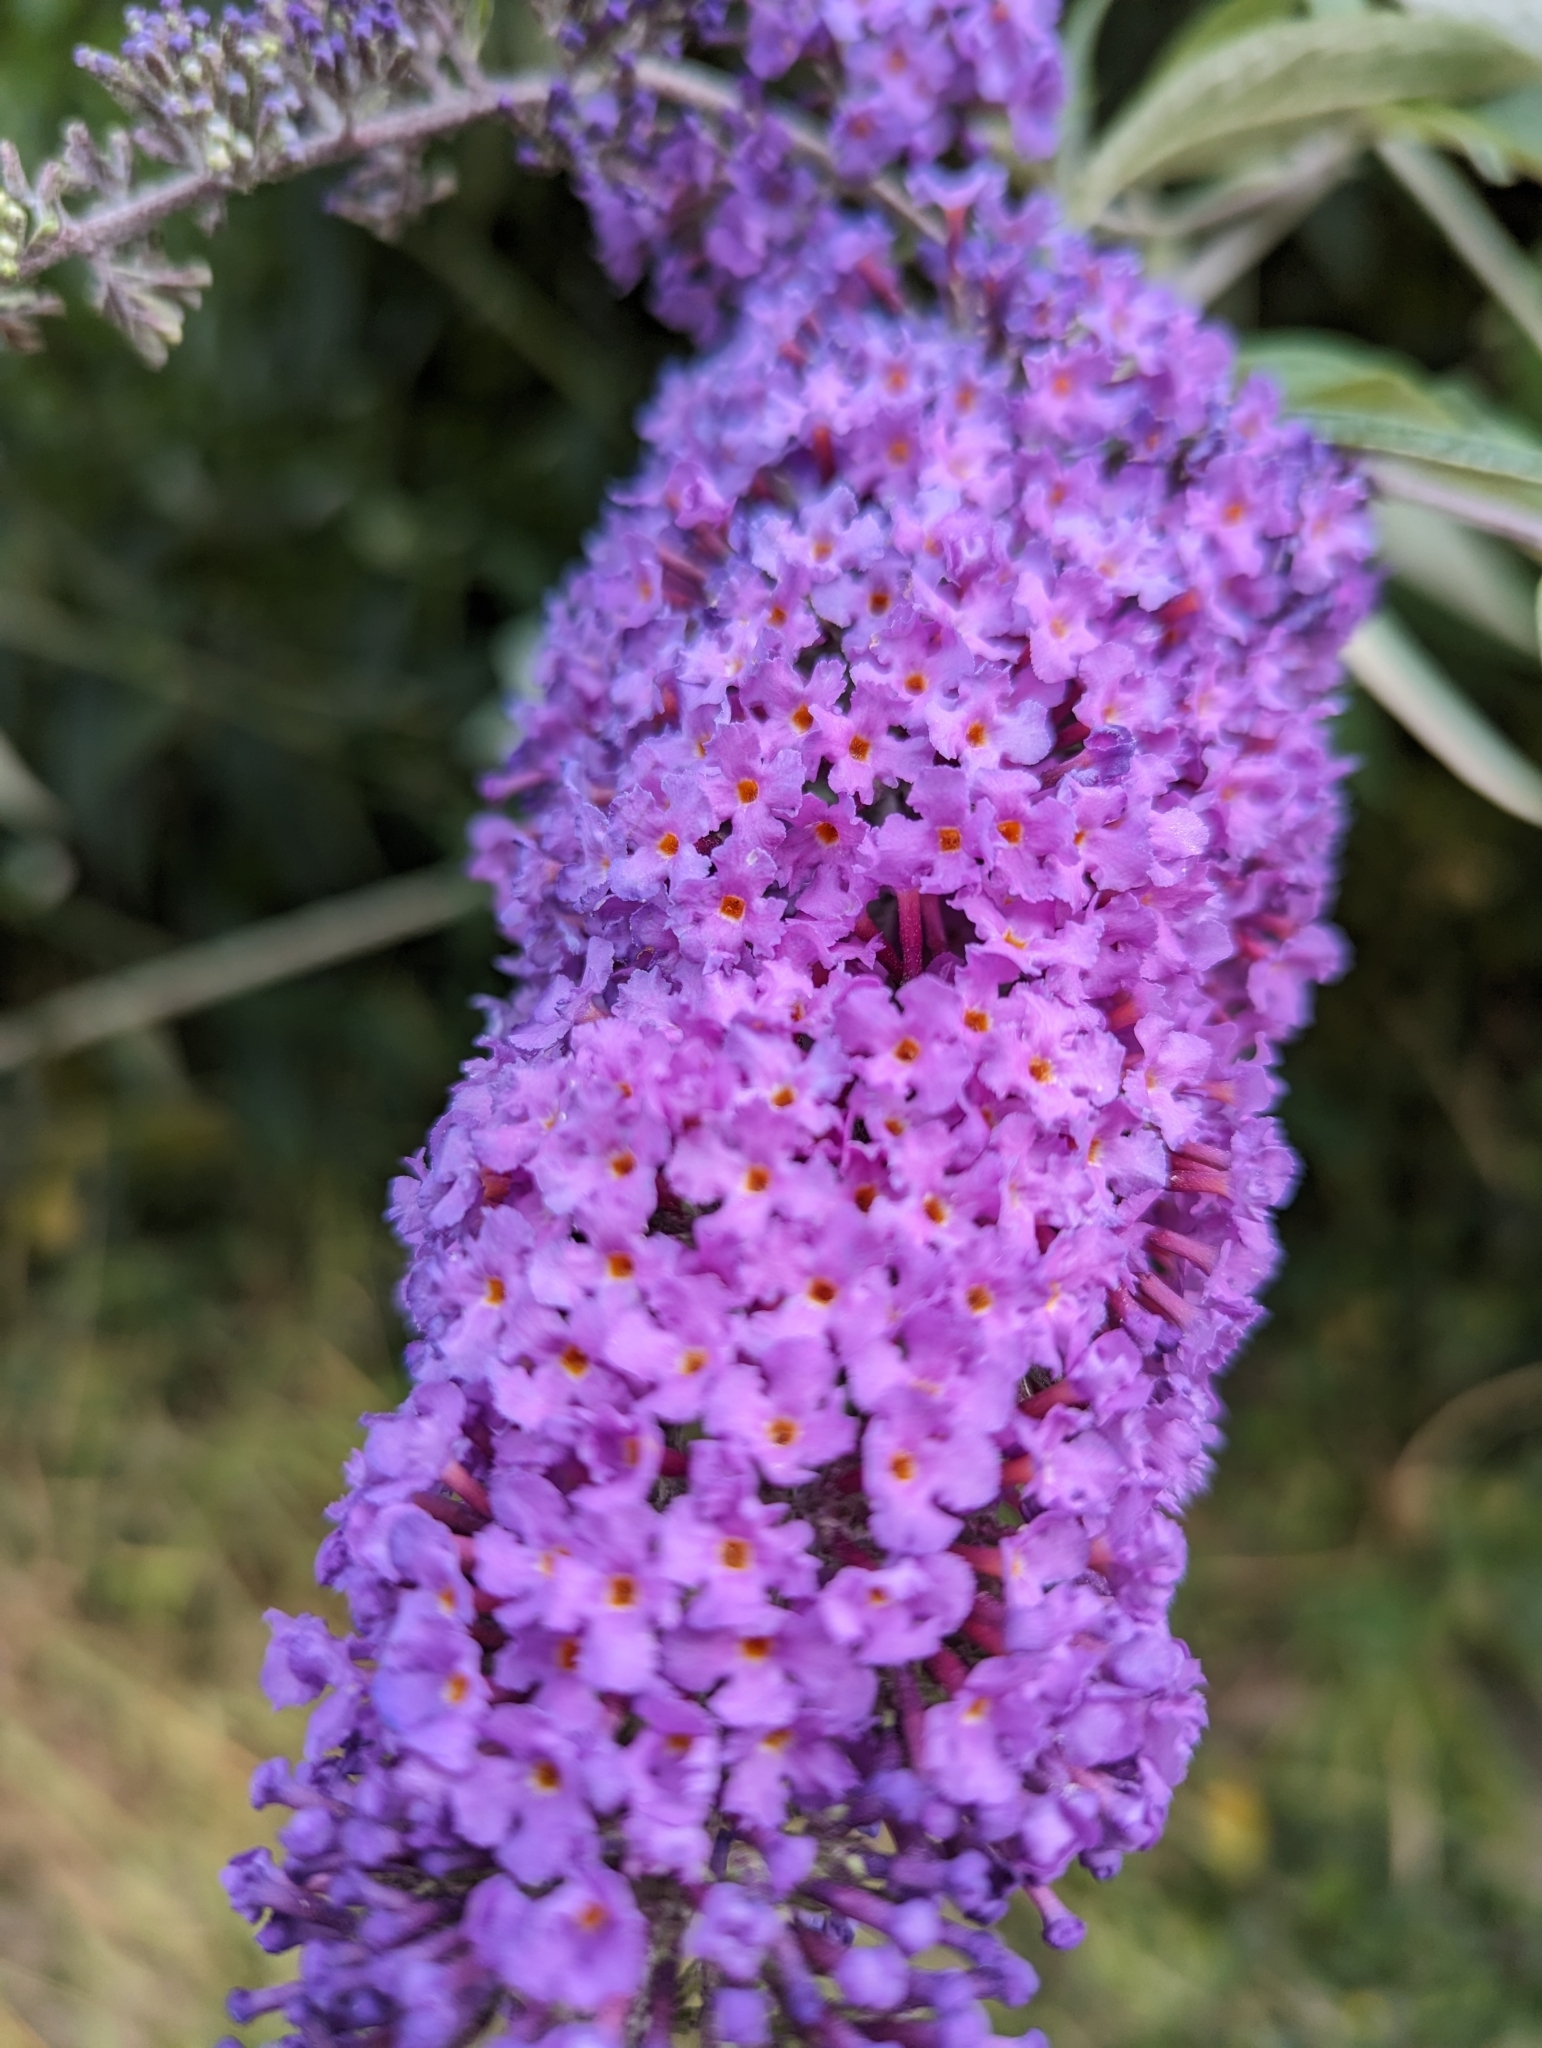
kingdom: Plantae
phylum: Tracheophyta
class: Magnoliopsida
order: Lamiales
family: Scrophulariaceae
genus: Buddleja
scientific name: Buddleja davidii
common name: Butterfly-bush
